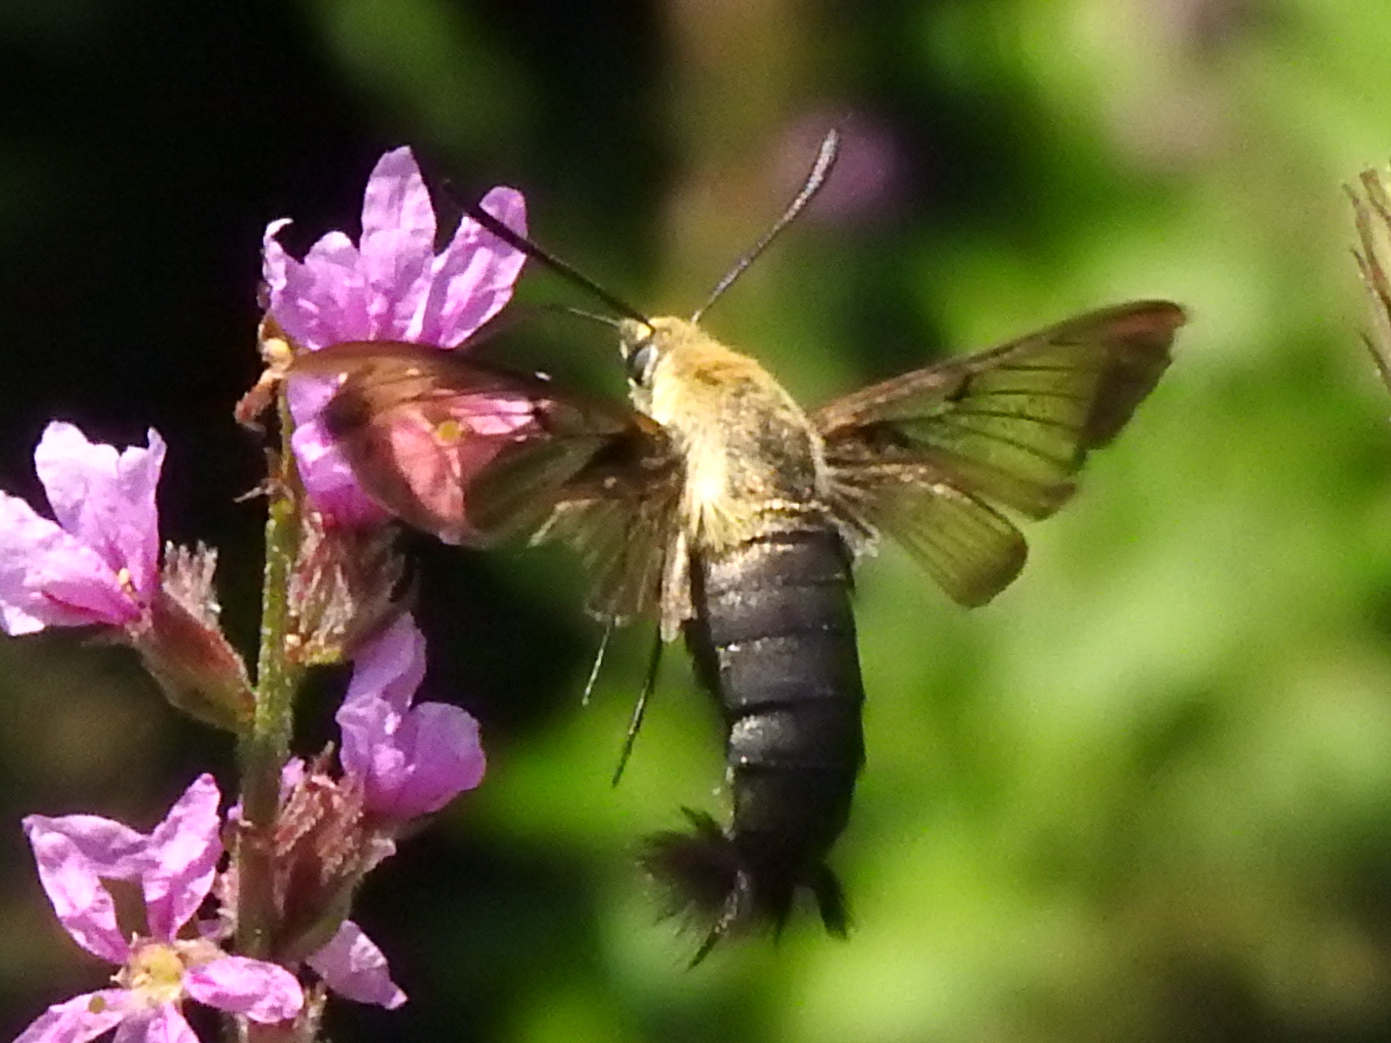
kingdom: Animalia
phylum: Arthropoda
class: Insecta
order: Lepidoptera
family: Sphingidae
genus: Hemaris
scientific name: Hemaris diffinis
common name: Bumblebee moth
